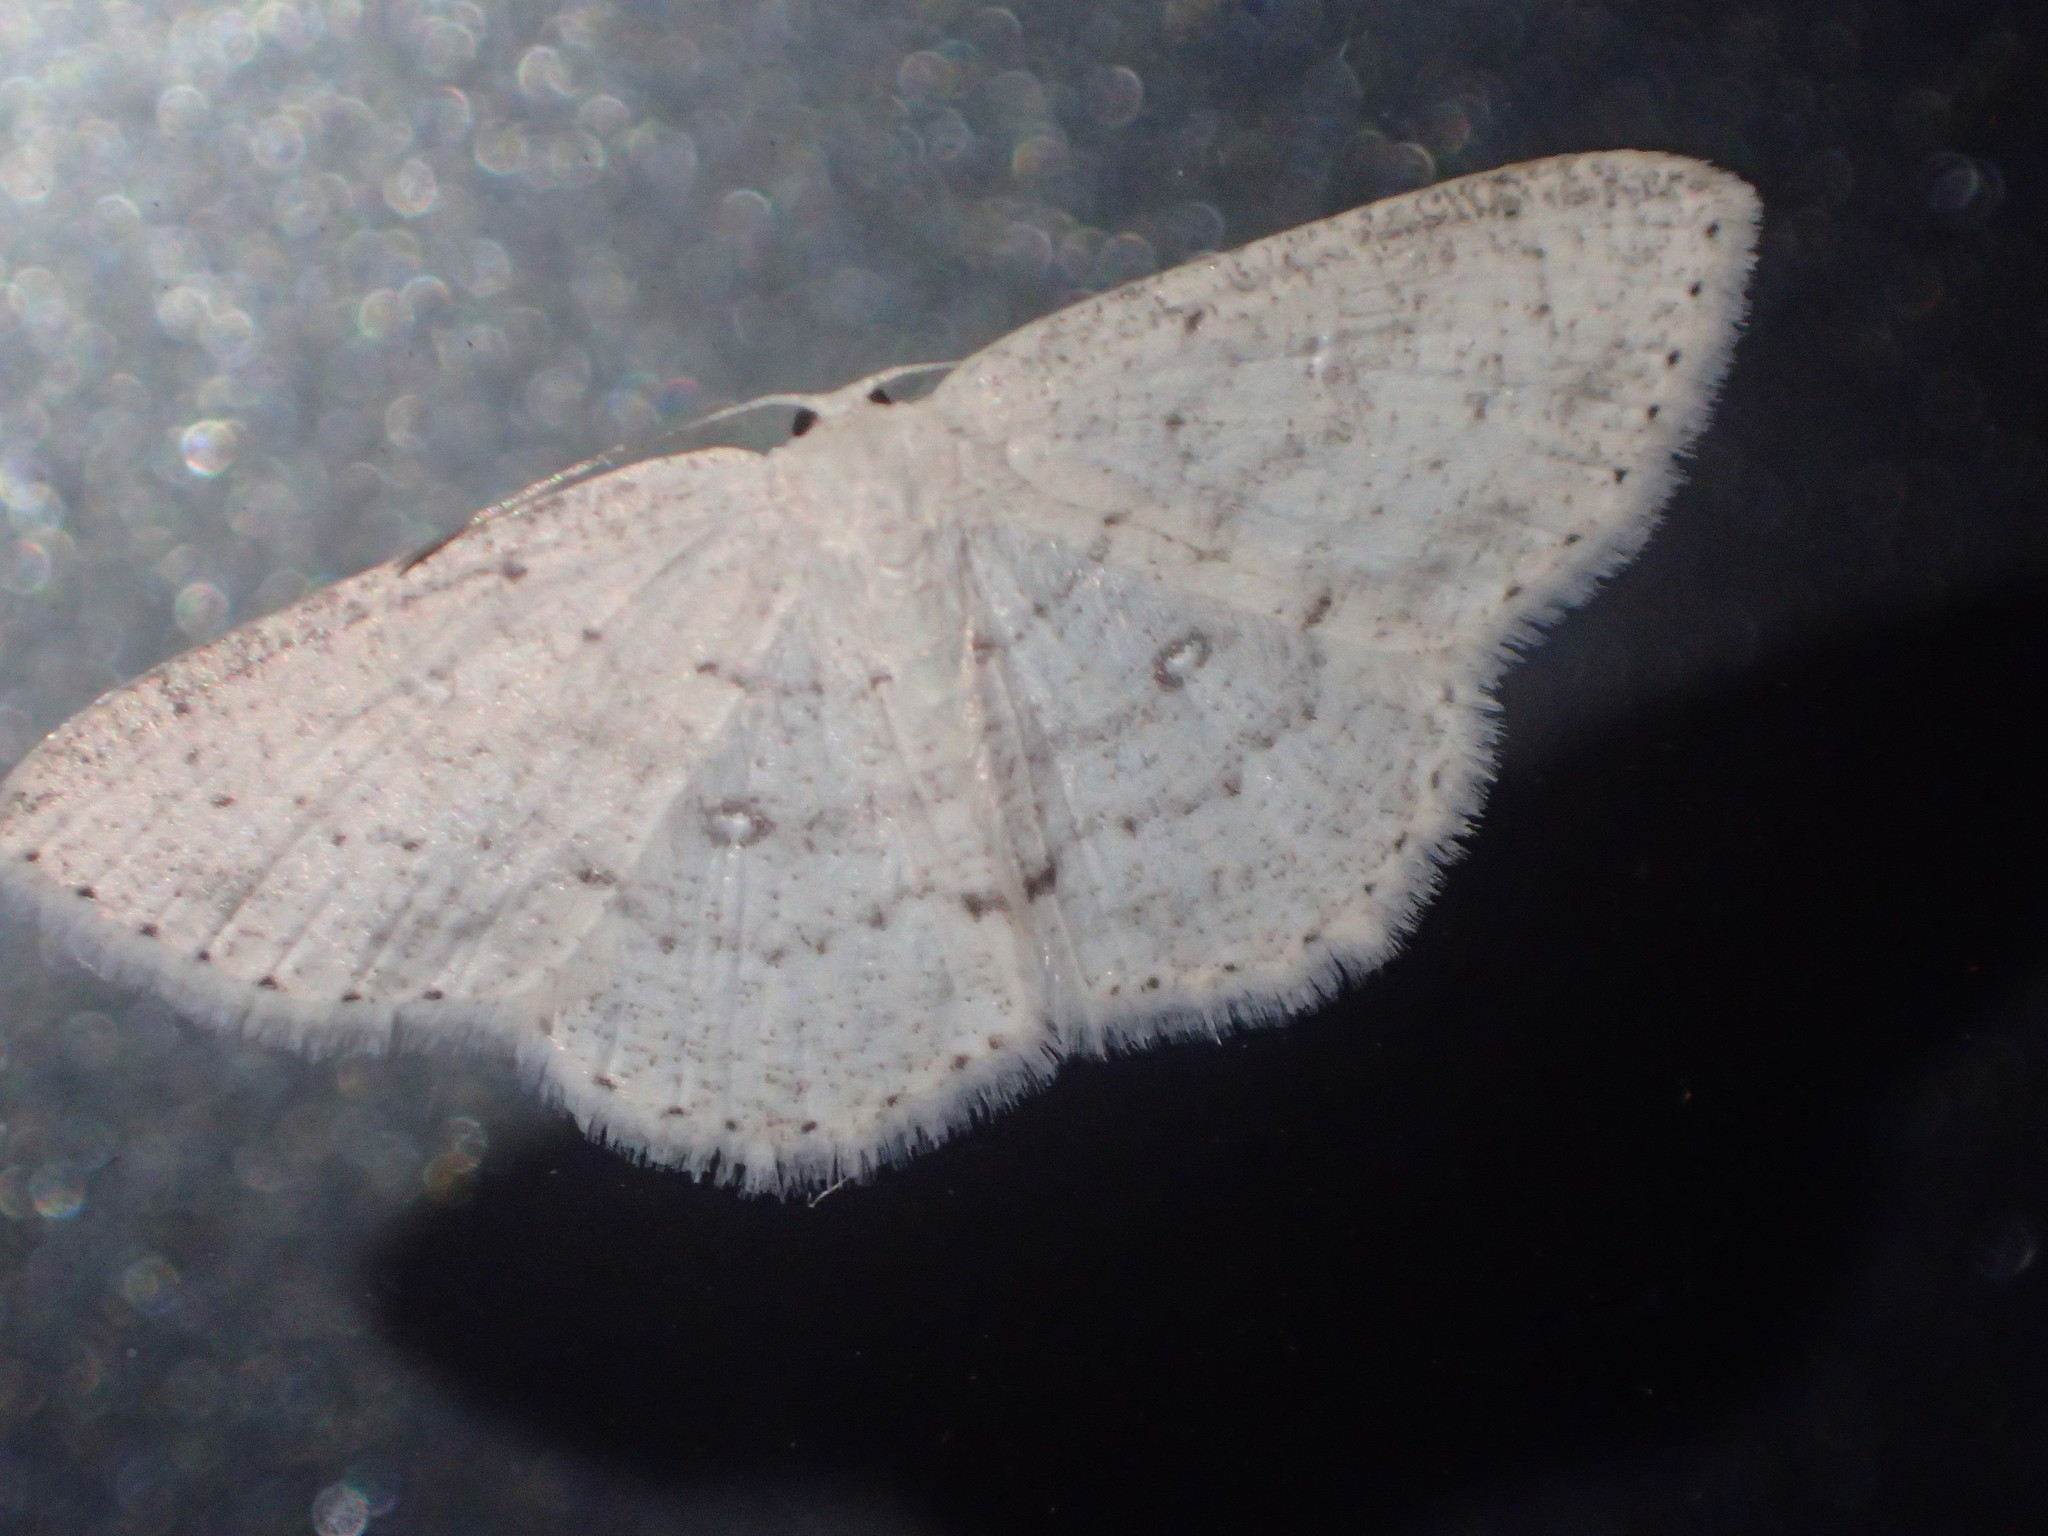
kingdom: Animalia
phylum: Arthropoda
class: Insecta
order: Lepidoptera
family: Geometridae
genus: Cyclophora
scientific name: Cyclophora pendulinaria
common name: Sweet fern geometer
